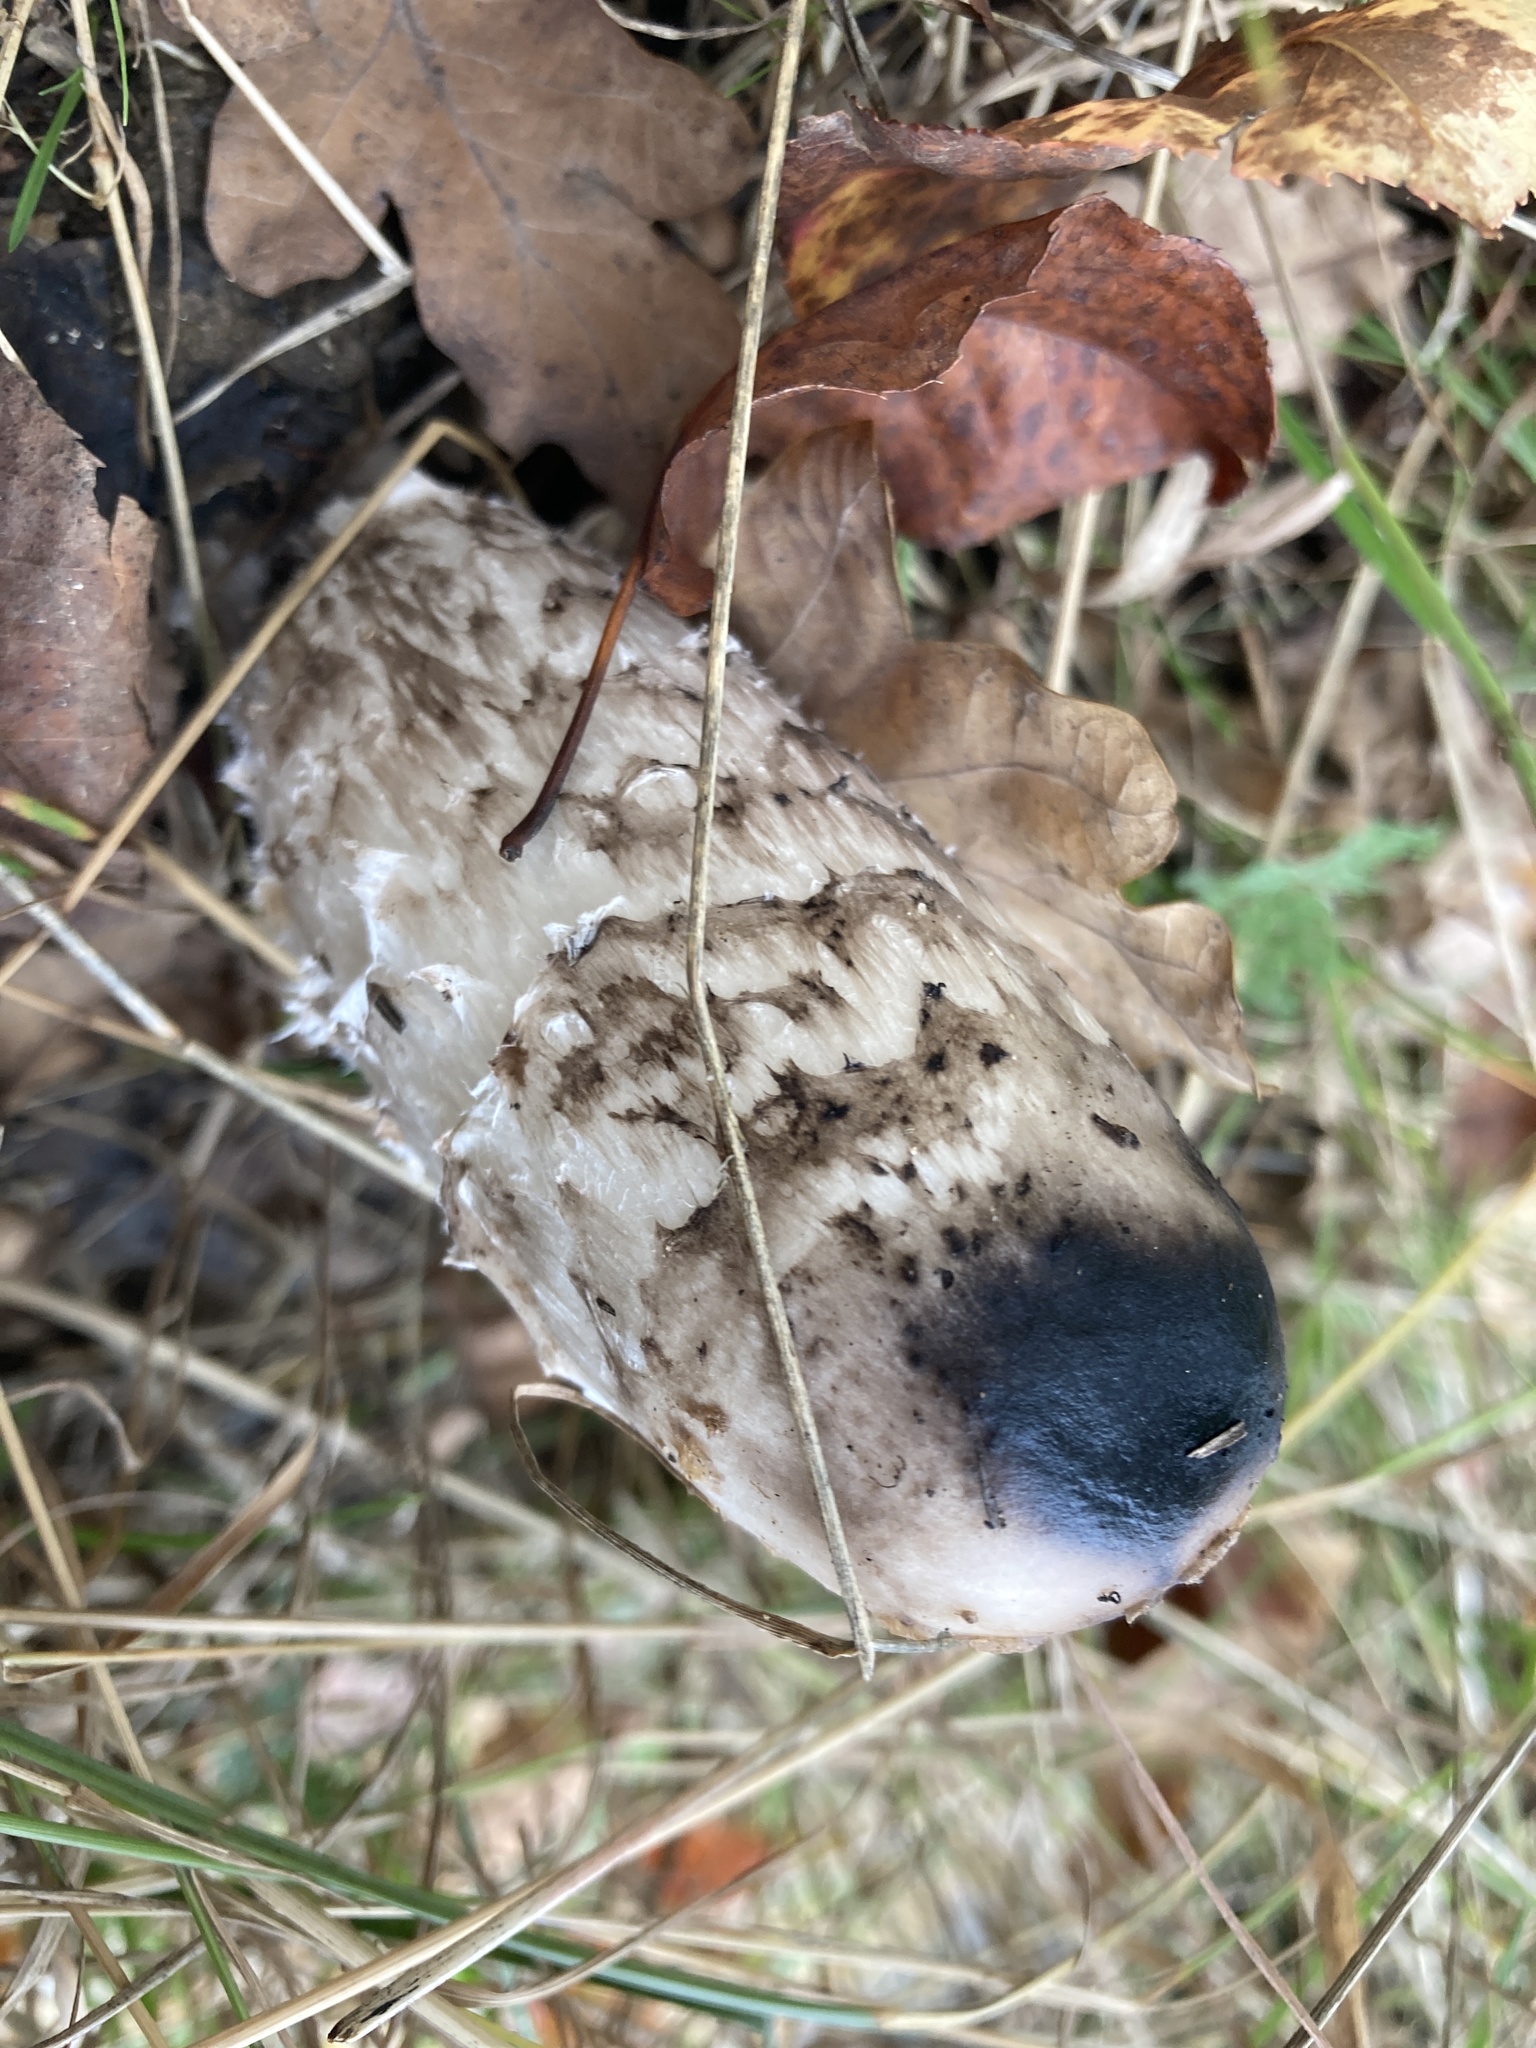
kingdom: Fungi
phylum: Basidiomycota
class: Agaricomycetes
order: Agaricales
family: Agaricaceae
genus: Coprinus
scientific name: Coprinus comatus
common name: Lawyer's wig
